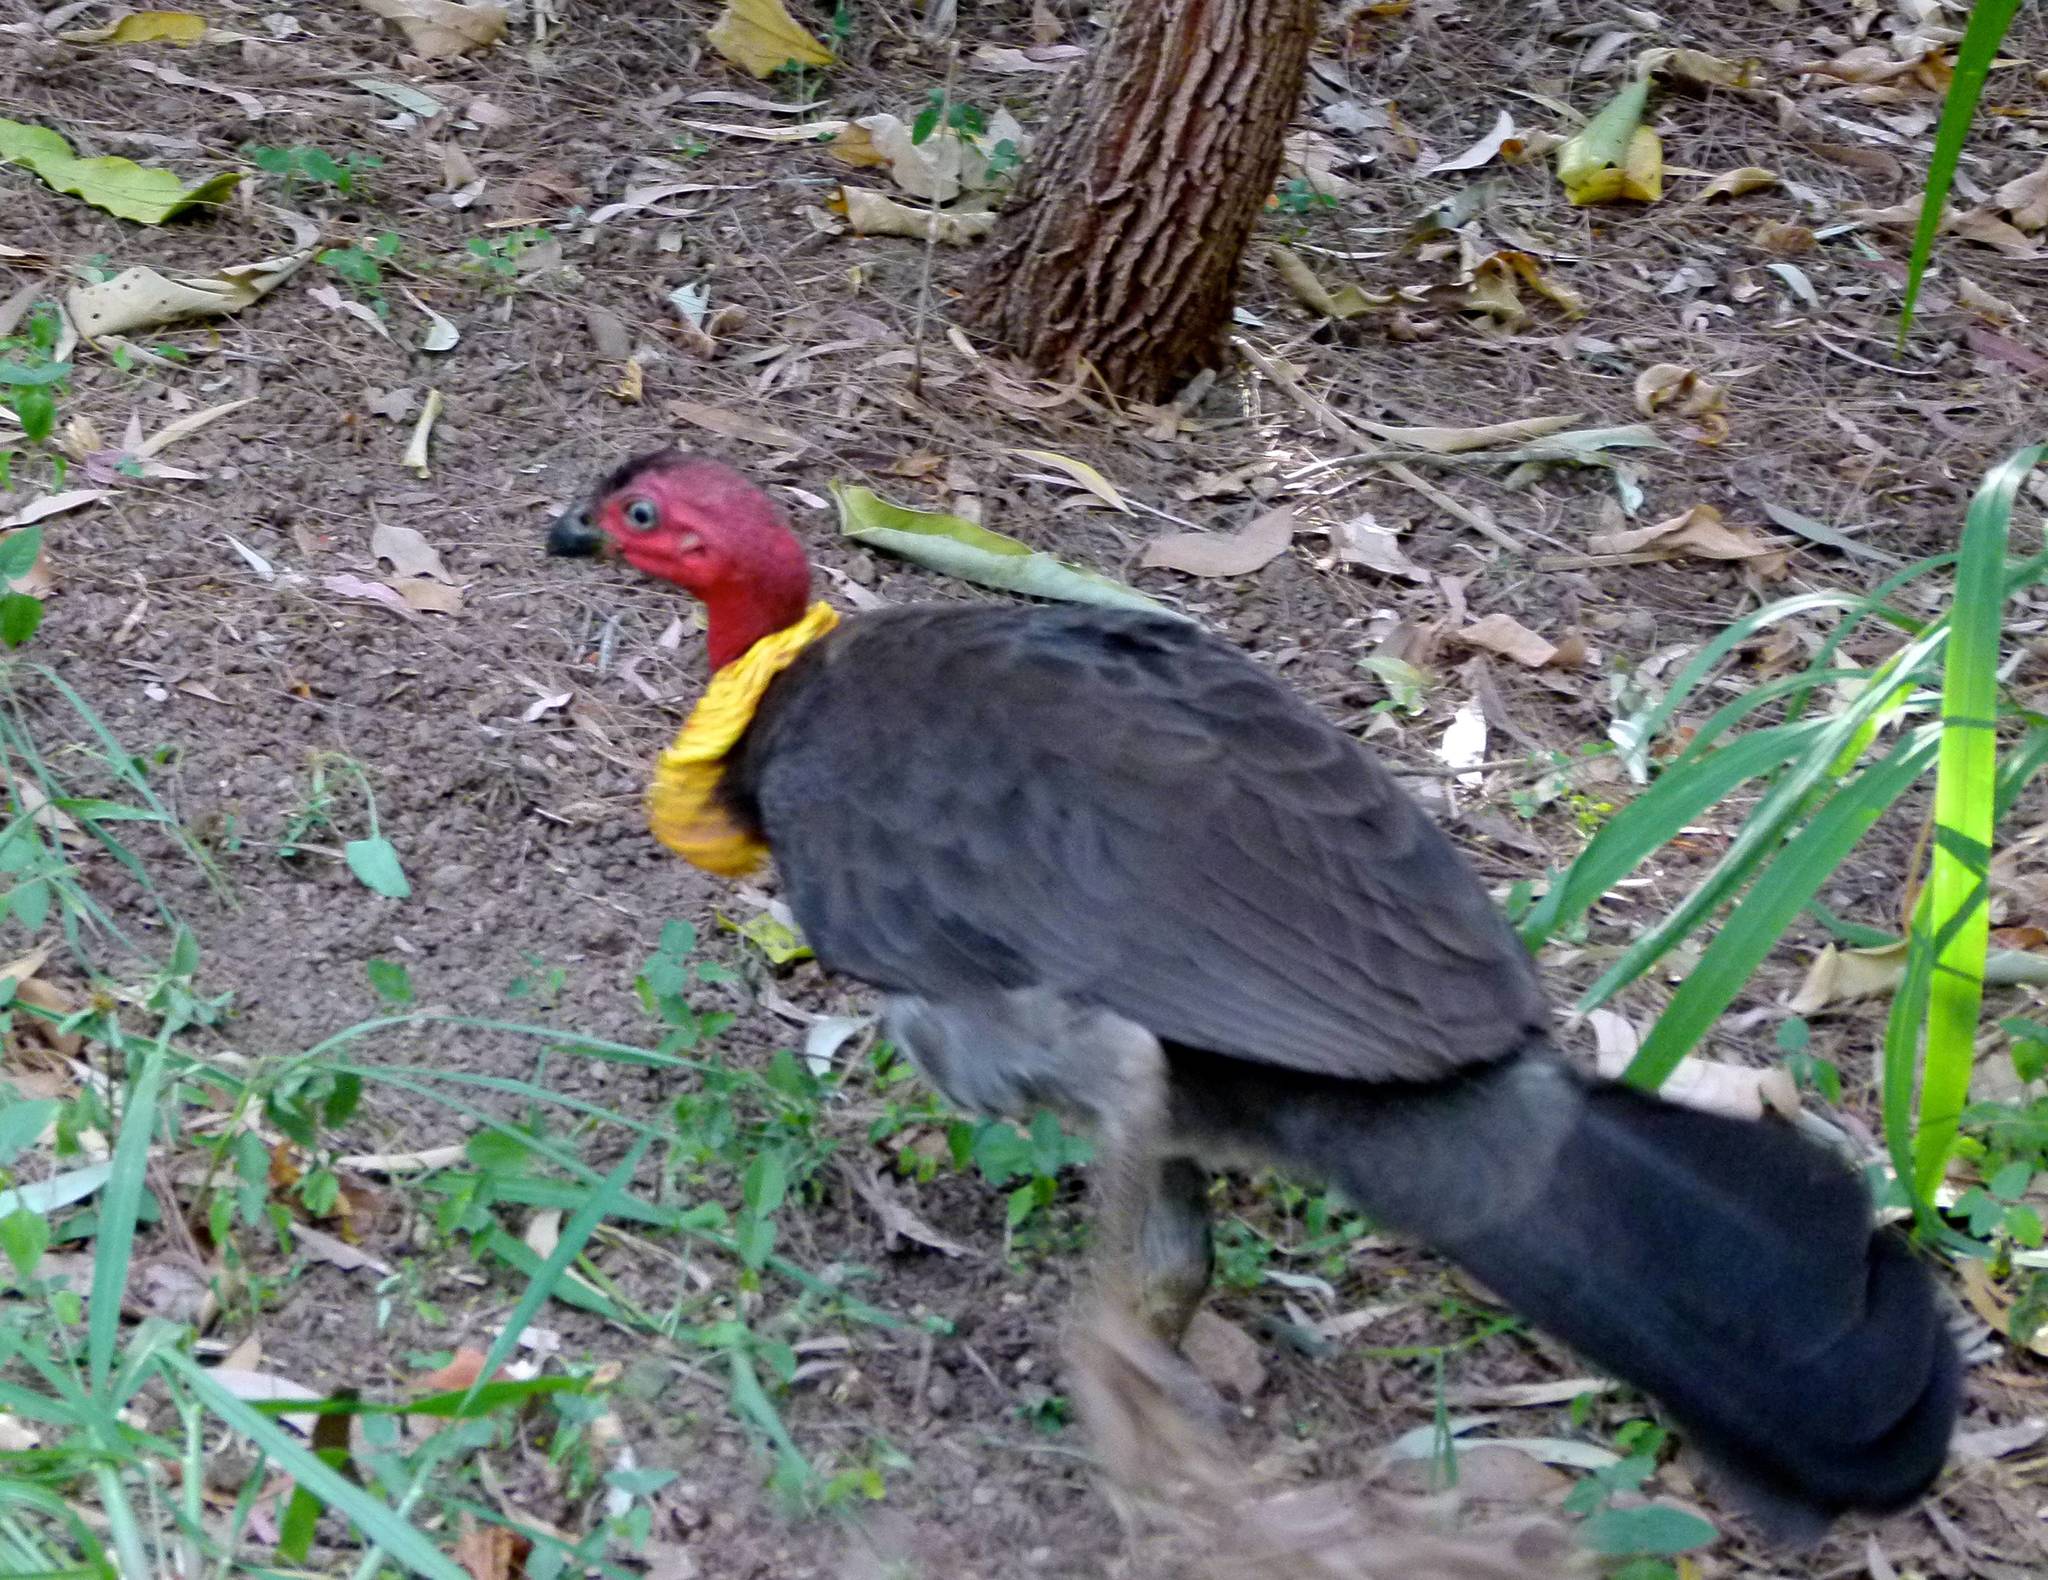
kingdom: Animalia
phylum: Chordata
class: Aves
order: Galliformes
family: Megapodiidae
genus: Alectura
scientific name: Alectura lathami
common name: Australian brushturkey
